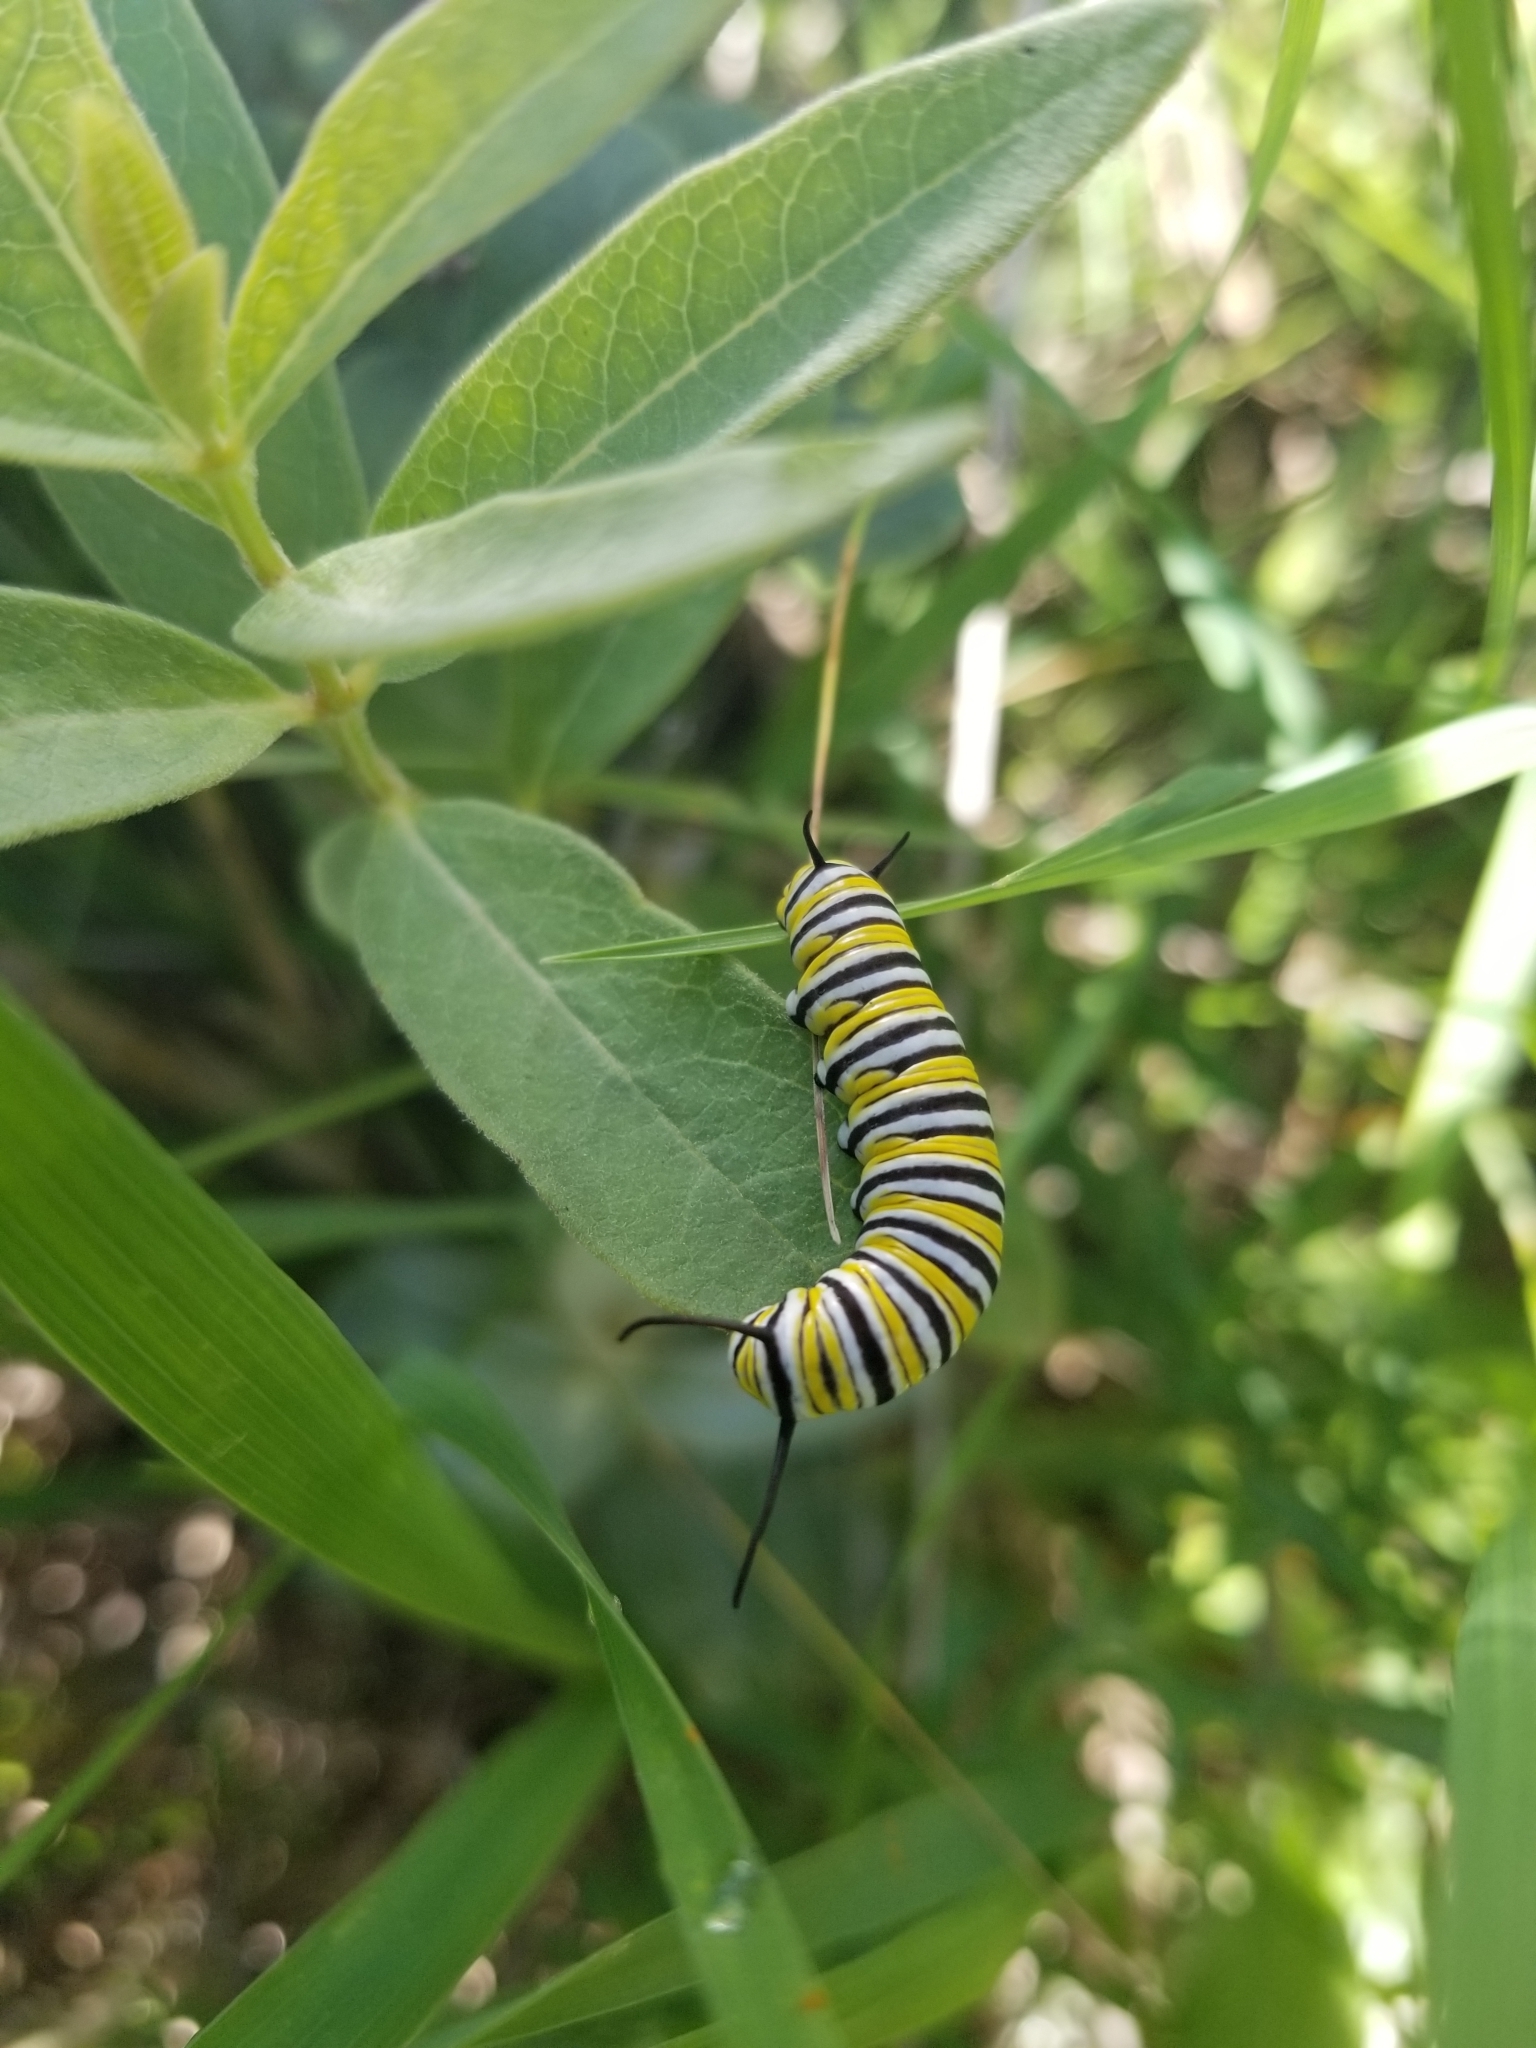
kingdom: Animalia
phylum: Arthropoda
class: Insecta
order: Lepidoptera
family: Nymphalidae
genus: Danaus
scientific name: Danaus plexippus
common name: Monarch
